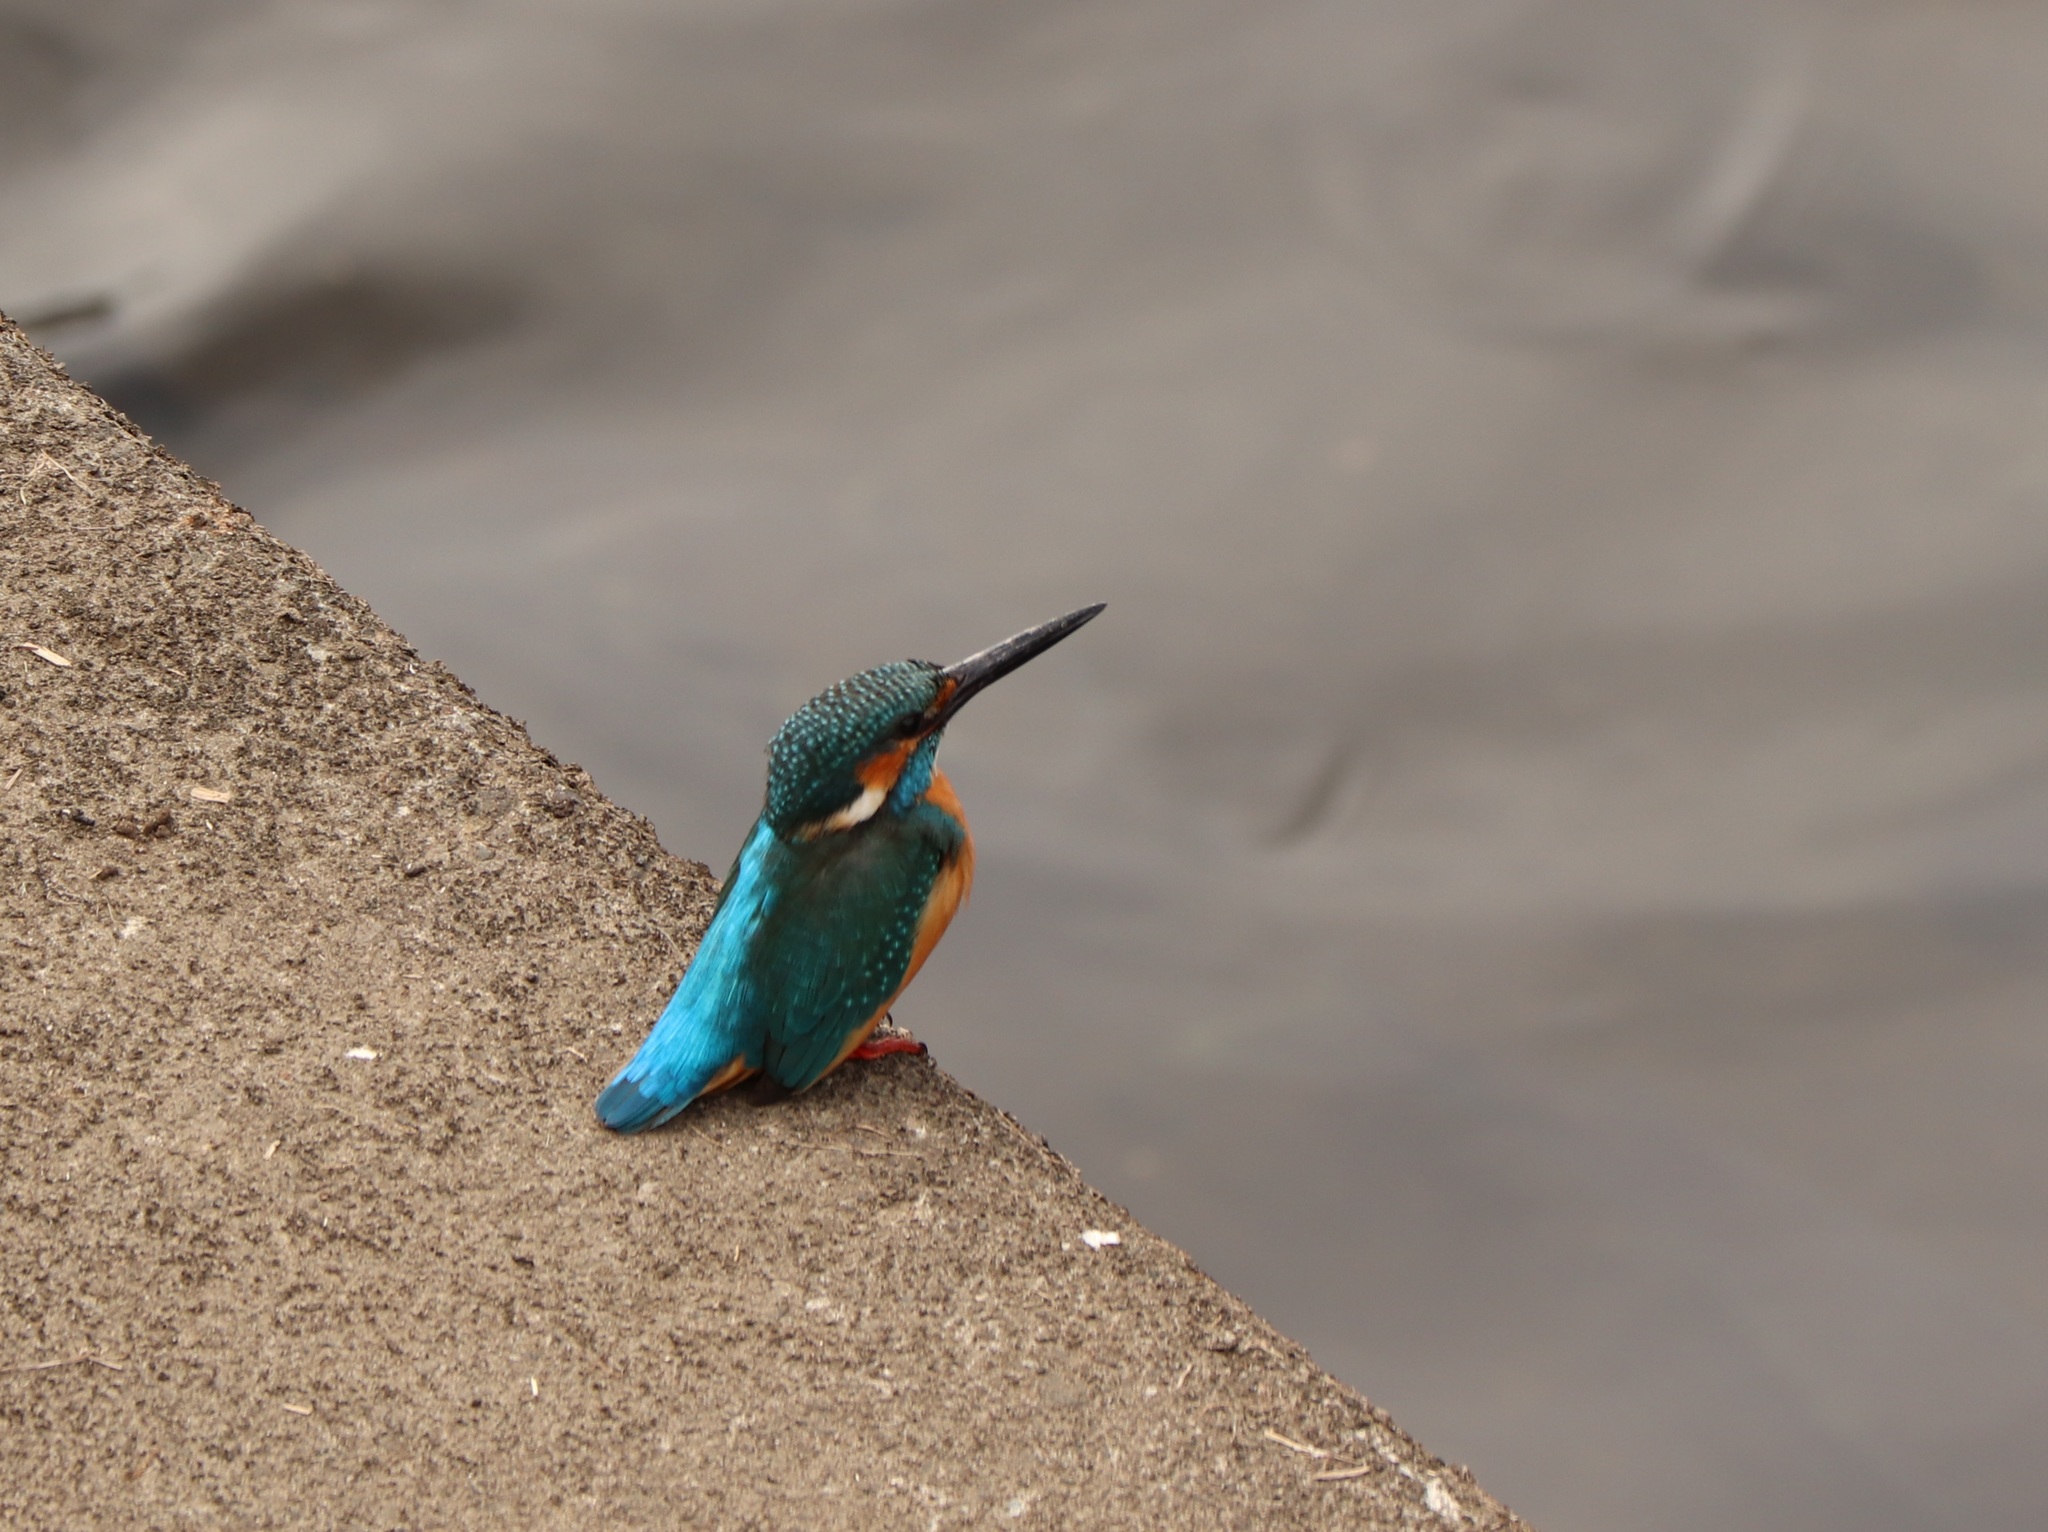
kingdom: Animalia
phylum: Chordata
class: Aves
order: Coraciiformes
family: Alcedinidae
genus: Alcedo
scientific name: Alcedo atthis
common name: Common kingfisher
